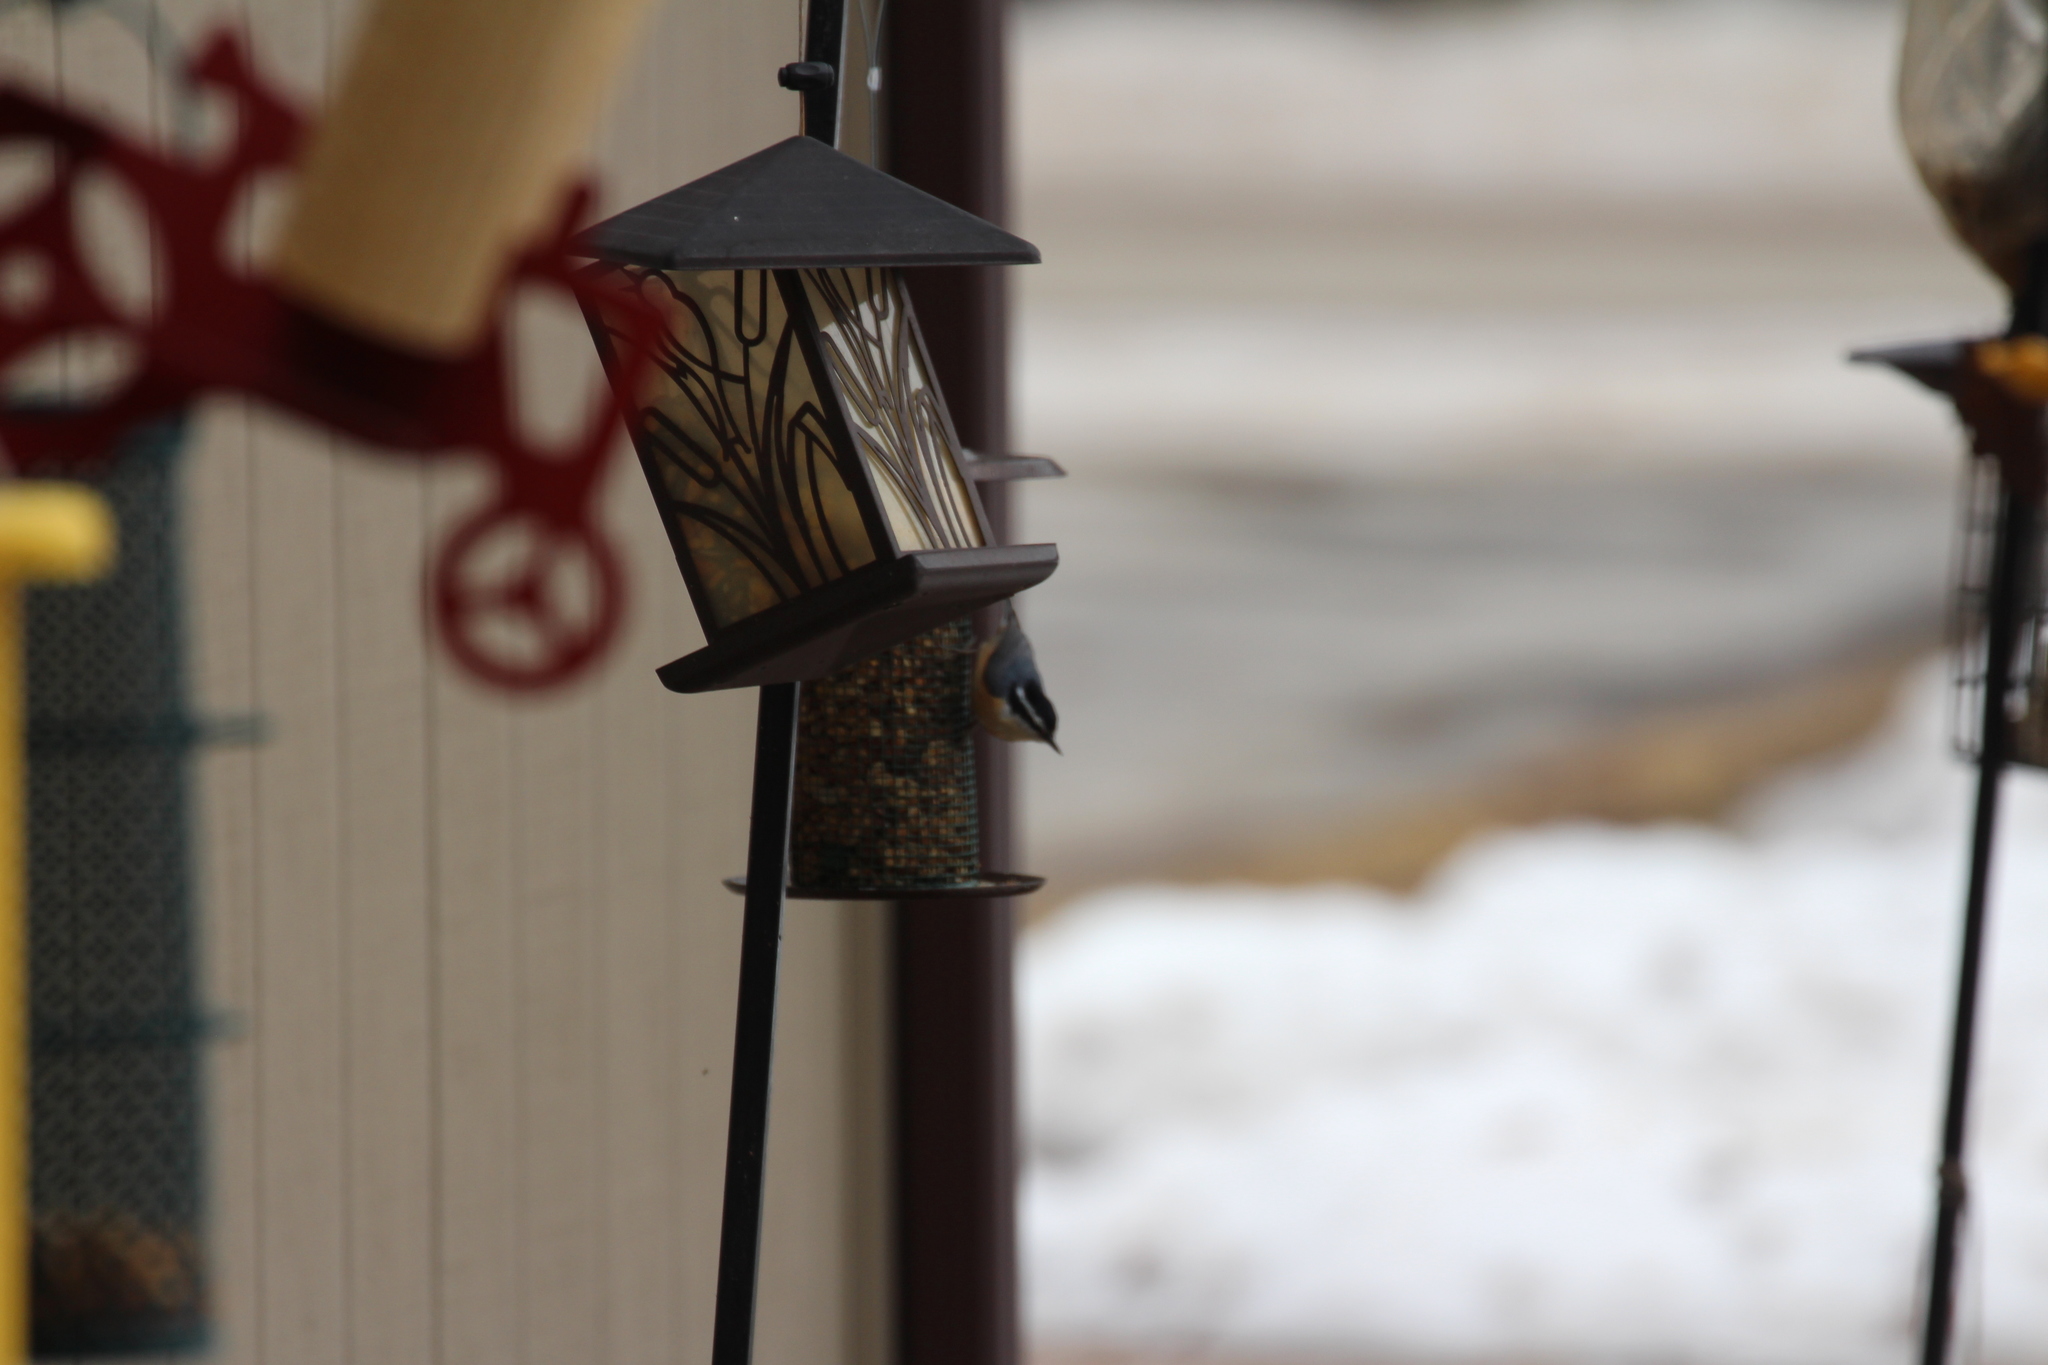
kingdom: Animalia
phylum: Chordata
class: Aves
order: Passeriformes
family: Sittidae
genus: Sitta
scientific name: Sitta canadensis
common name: Red-breasted nuthatch
